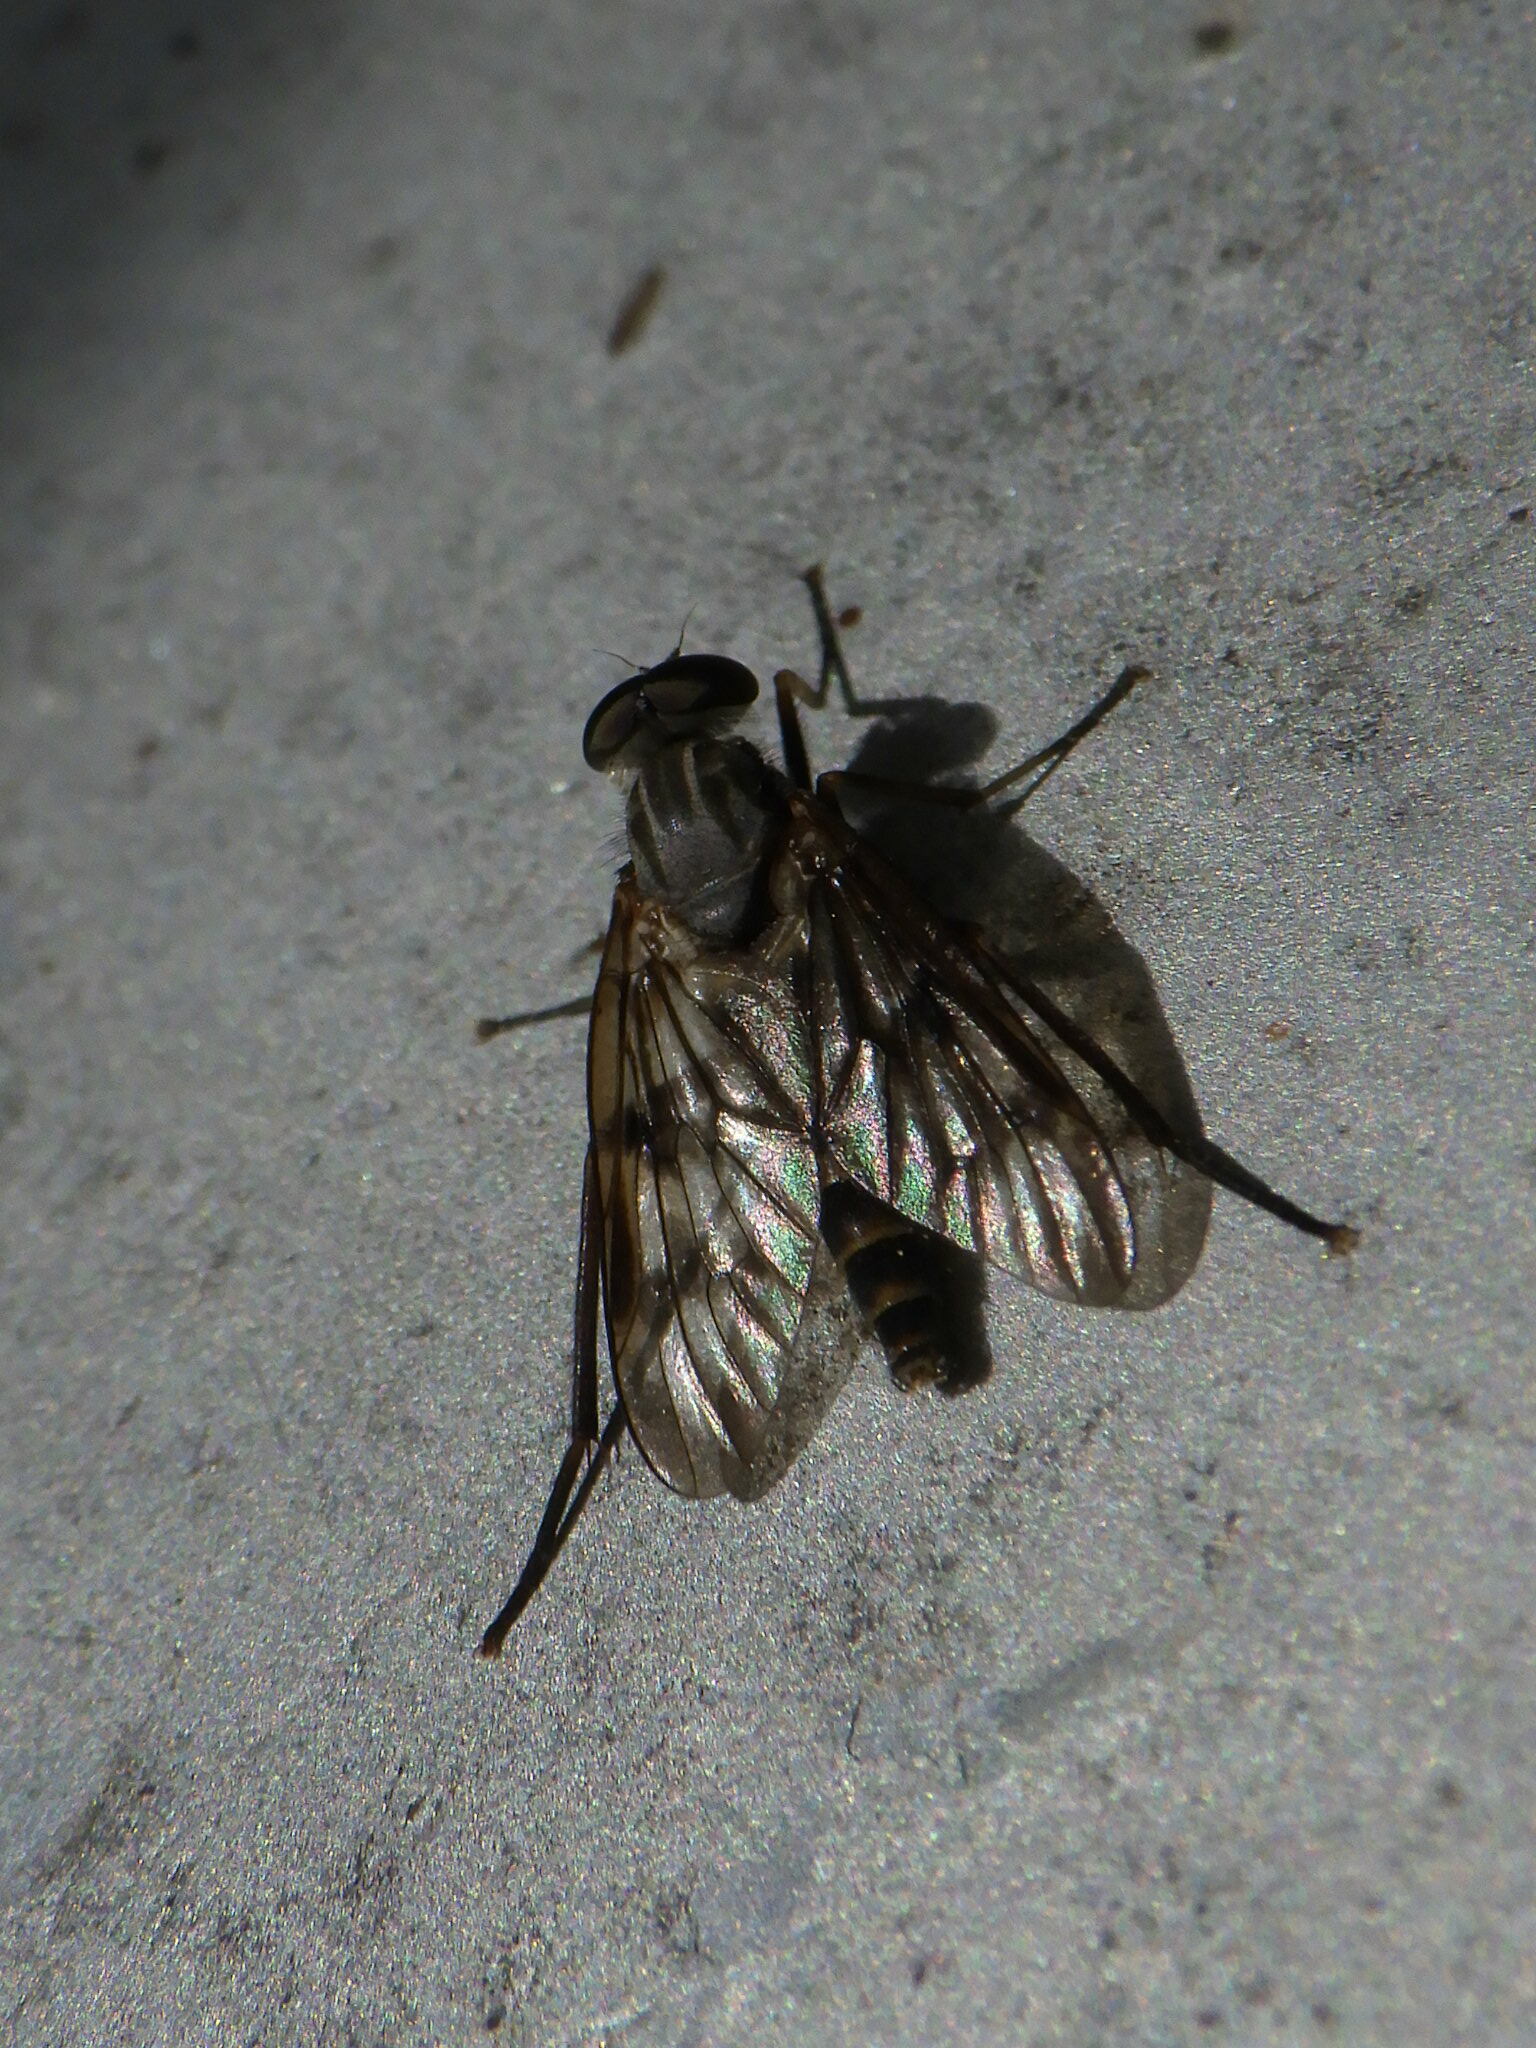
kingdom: Animalia
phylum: Arthropoda
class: Insecta
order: Diptera
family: Rhagionidae
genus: Rhagio
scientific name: Rhagio mystaceus
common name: Common snipe fly
